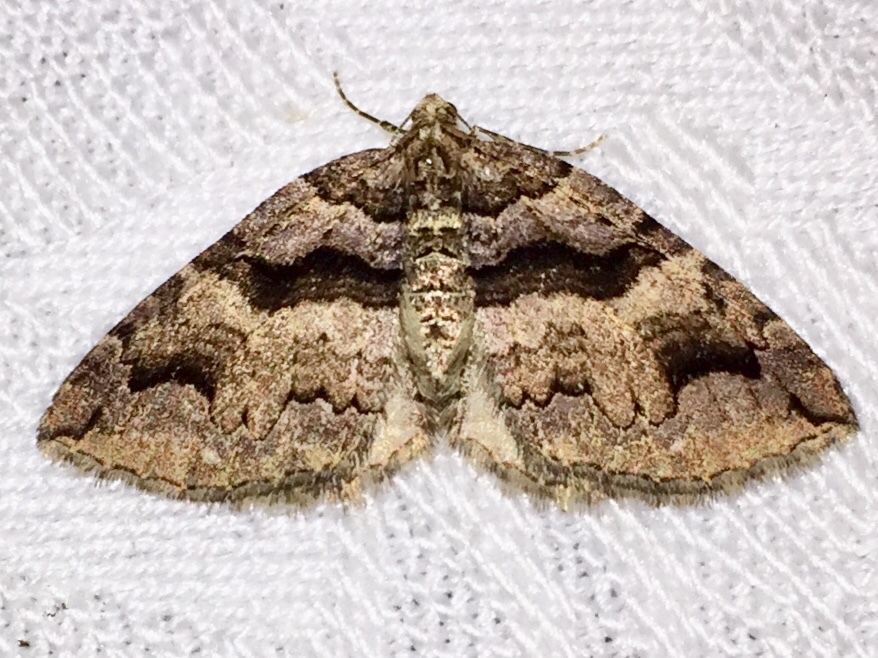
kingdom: Animalia
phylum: Arthropoda
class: Insecta
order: Lepidoptera
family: Geometridae
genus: Anticlea
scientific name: Anticlea vasiliata
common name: Variable carpet
